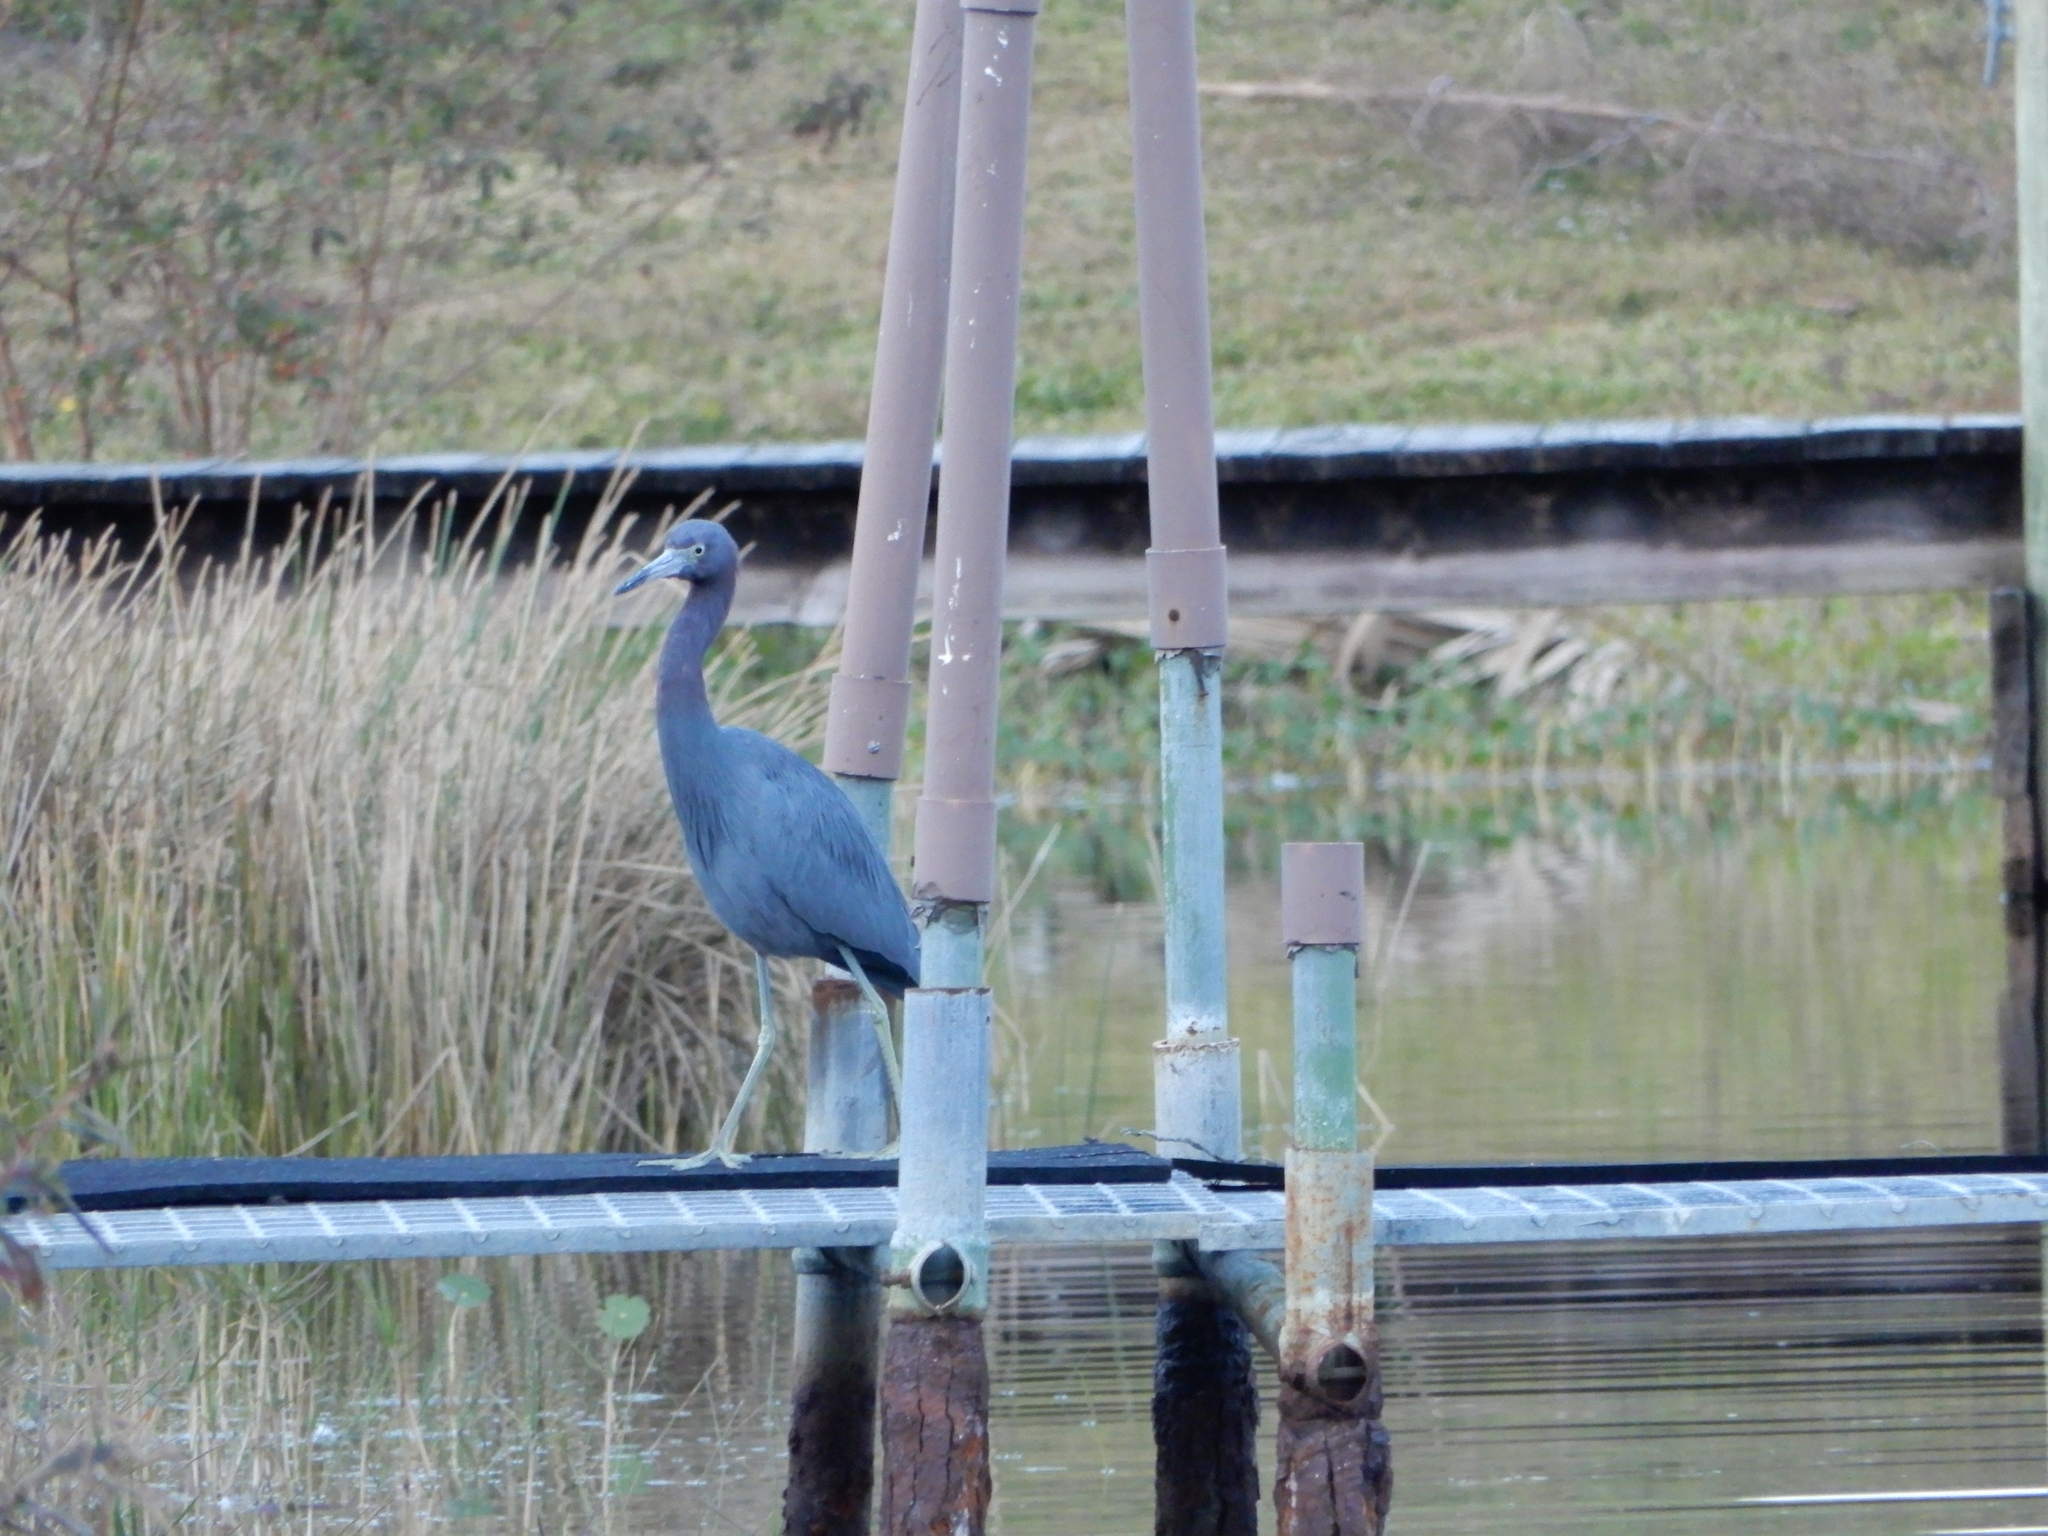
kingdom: Animalia
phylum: Chordata
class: Aves
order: Pelecaniformes
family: Ardeidae
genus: Egretta
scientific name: Egretta caerulea
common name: Little blue heron
